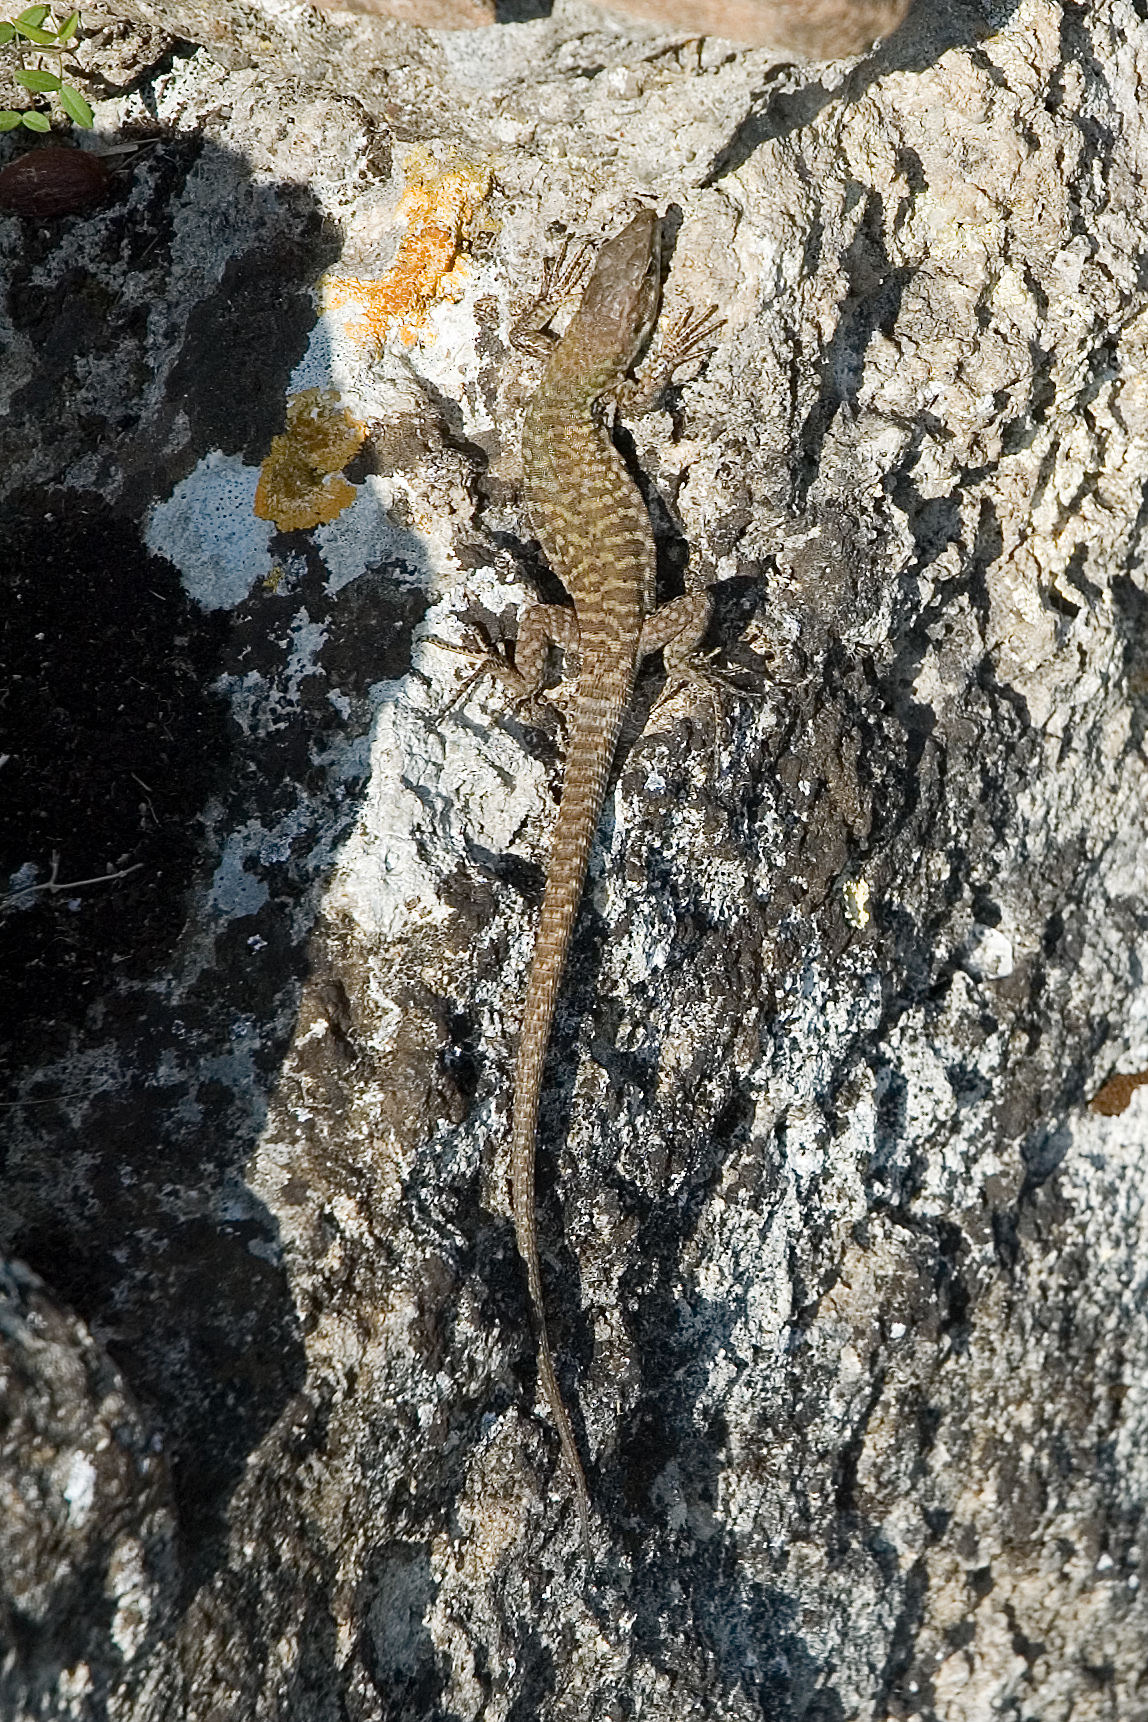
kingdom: Animalia
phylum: Chordata
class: Squamata
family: Lacertidae
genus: Podarcis
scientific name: Podarcis siculus
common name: Italian wall lizard
